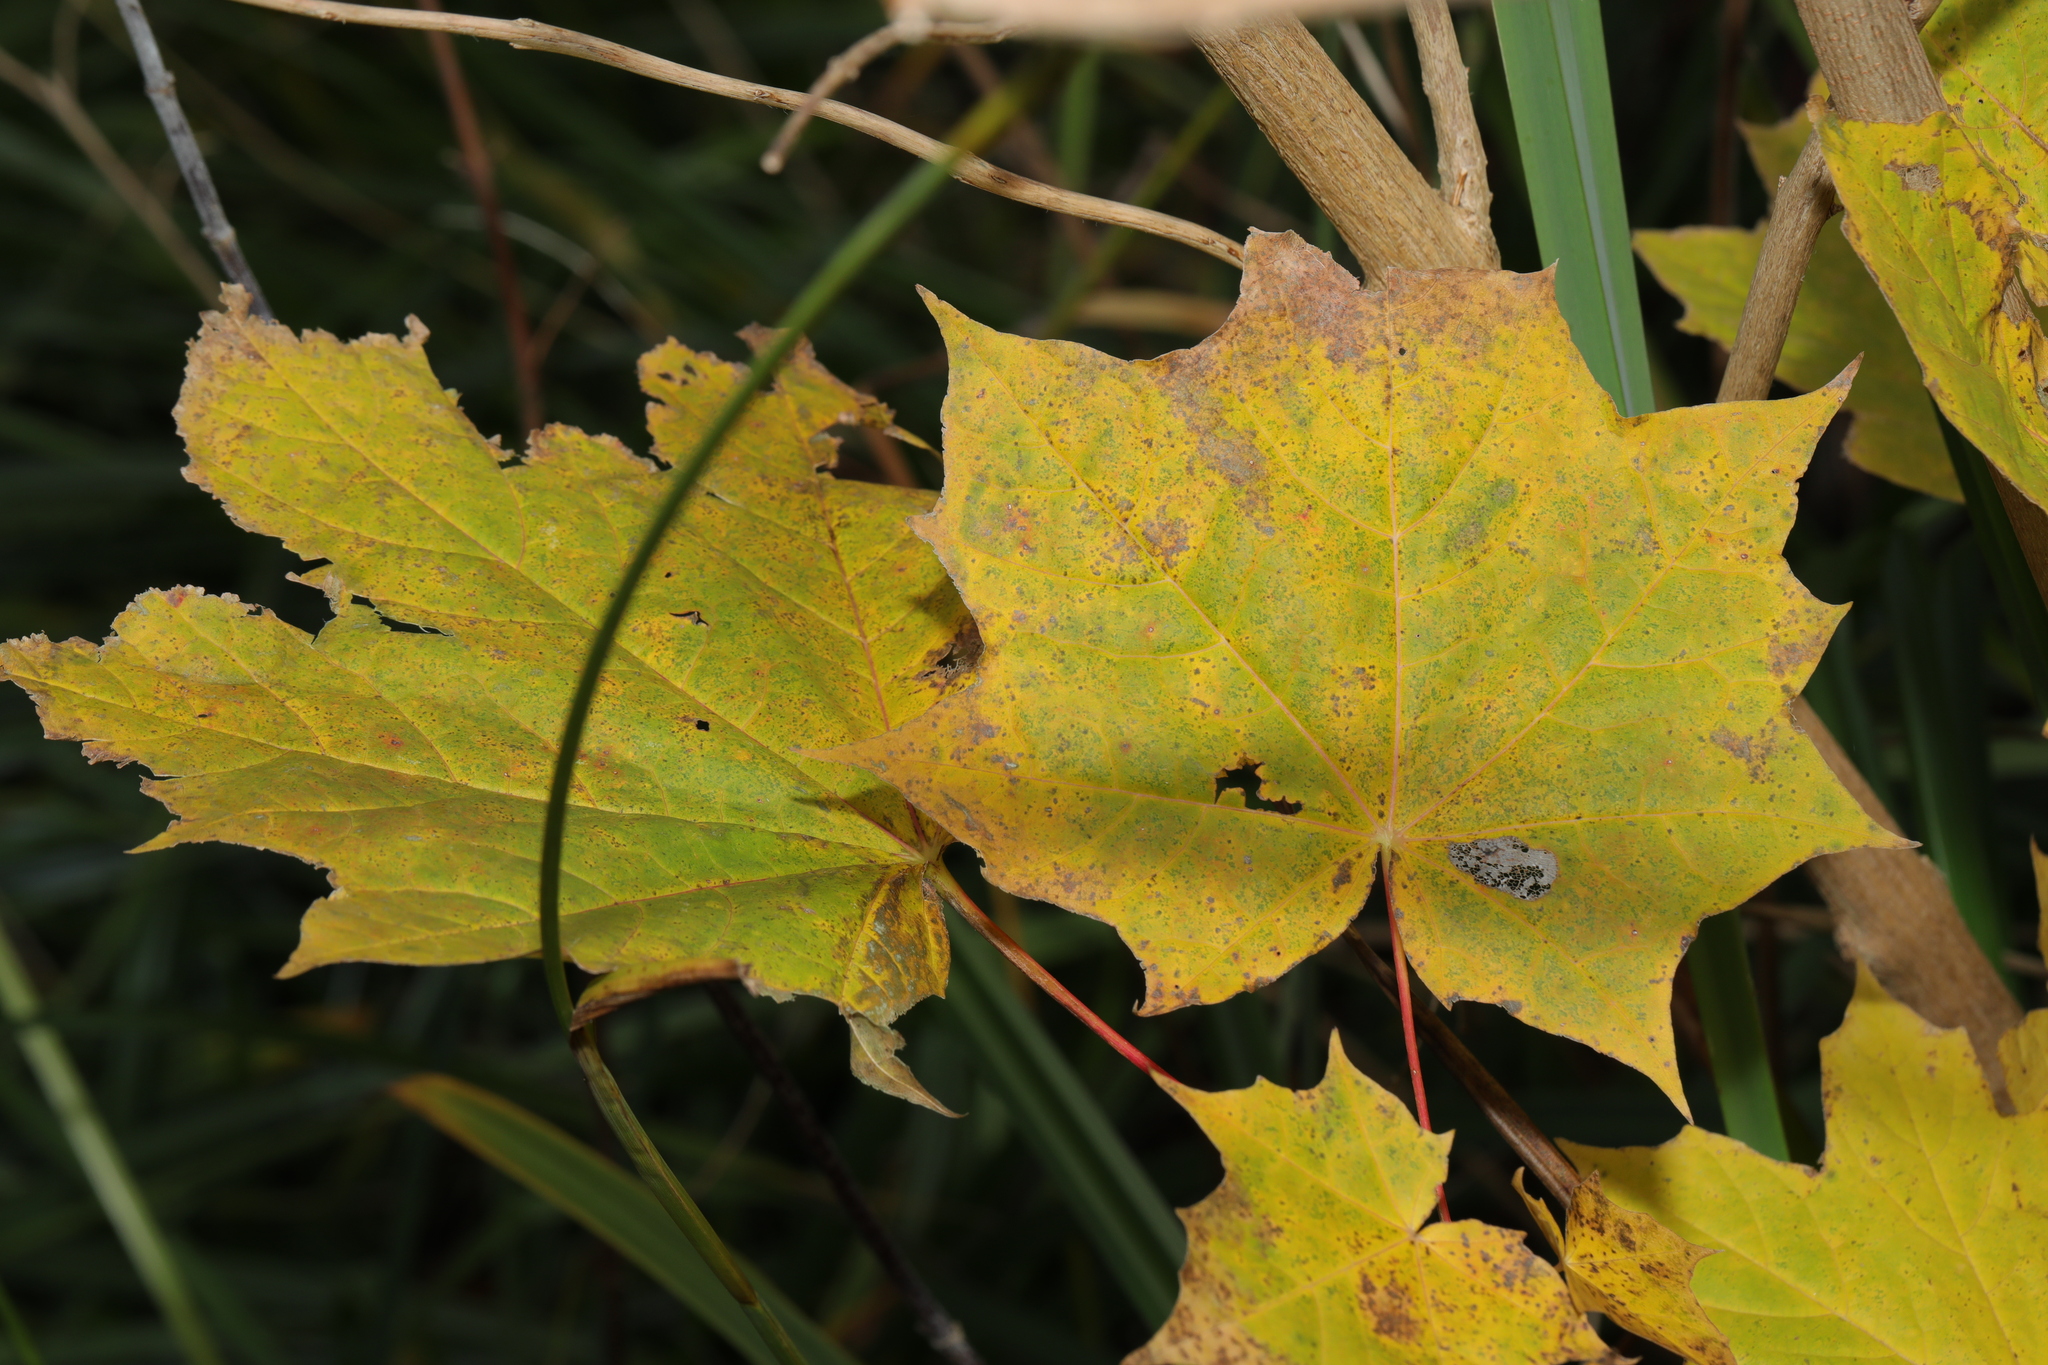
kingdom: Plantae
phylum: Tracheophyta
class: Magnoliopsida
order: Sapindales
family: Sapindaceae
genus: Acer
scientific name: Acer platanoides
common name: Norway maple
